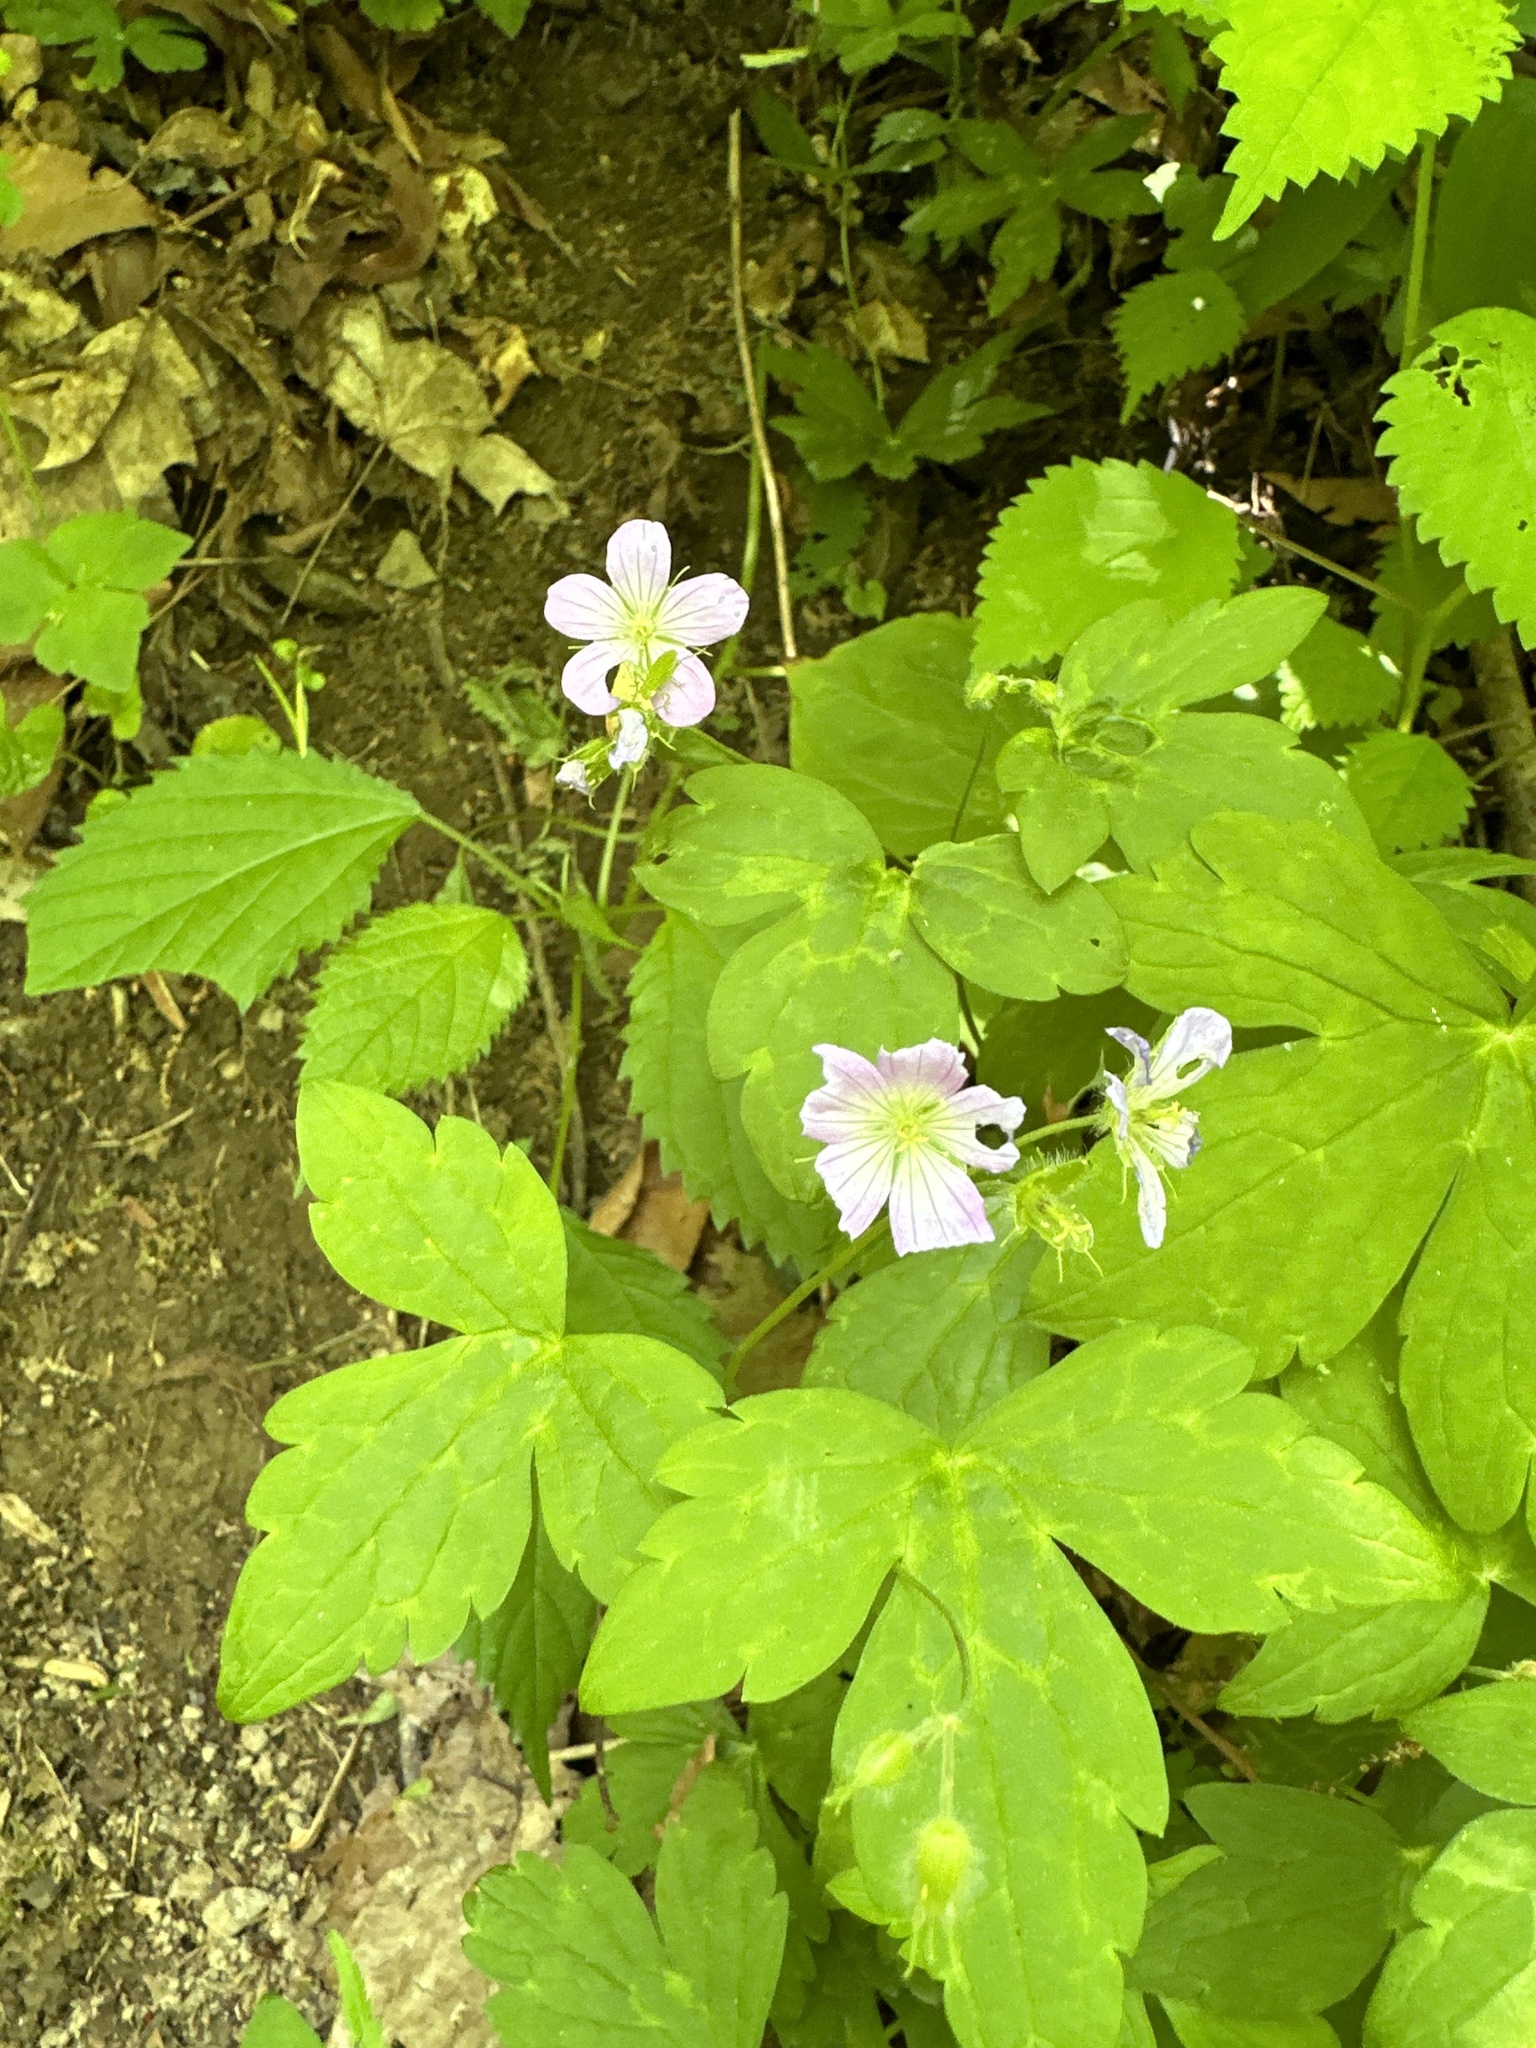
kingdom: Plantae
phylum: Tracheophyta
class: Magnoliopsida
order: Geraniales
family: Geraniaceae
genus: Geranium
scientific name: Geranium maculatum
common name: Spotted geranium
